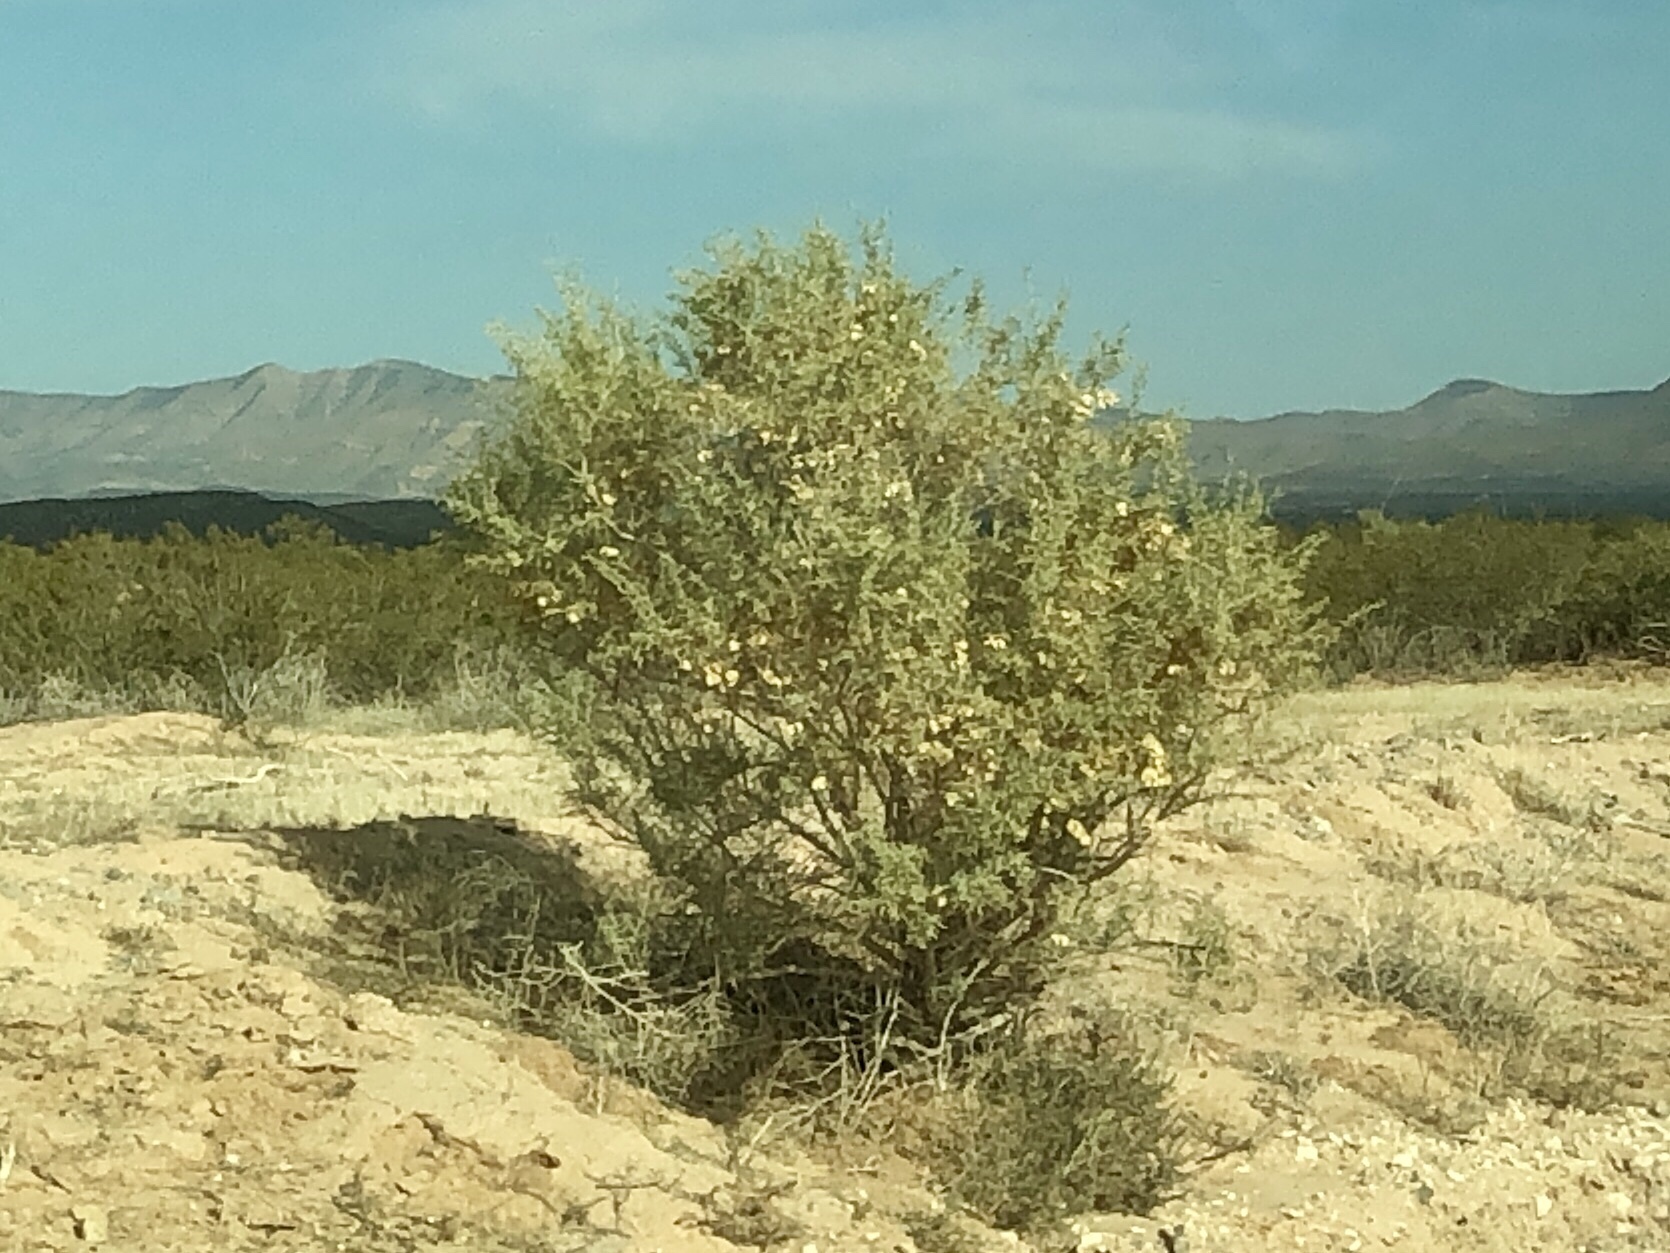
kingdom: Plantae
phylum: Tracheophyta
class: Magnoliopsida
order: Caryophyllales
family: Amaranthaceae
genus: Atriplex
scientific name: Atriplex canescens
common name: Four-wing saltbush
